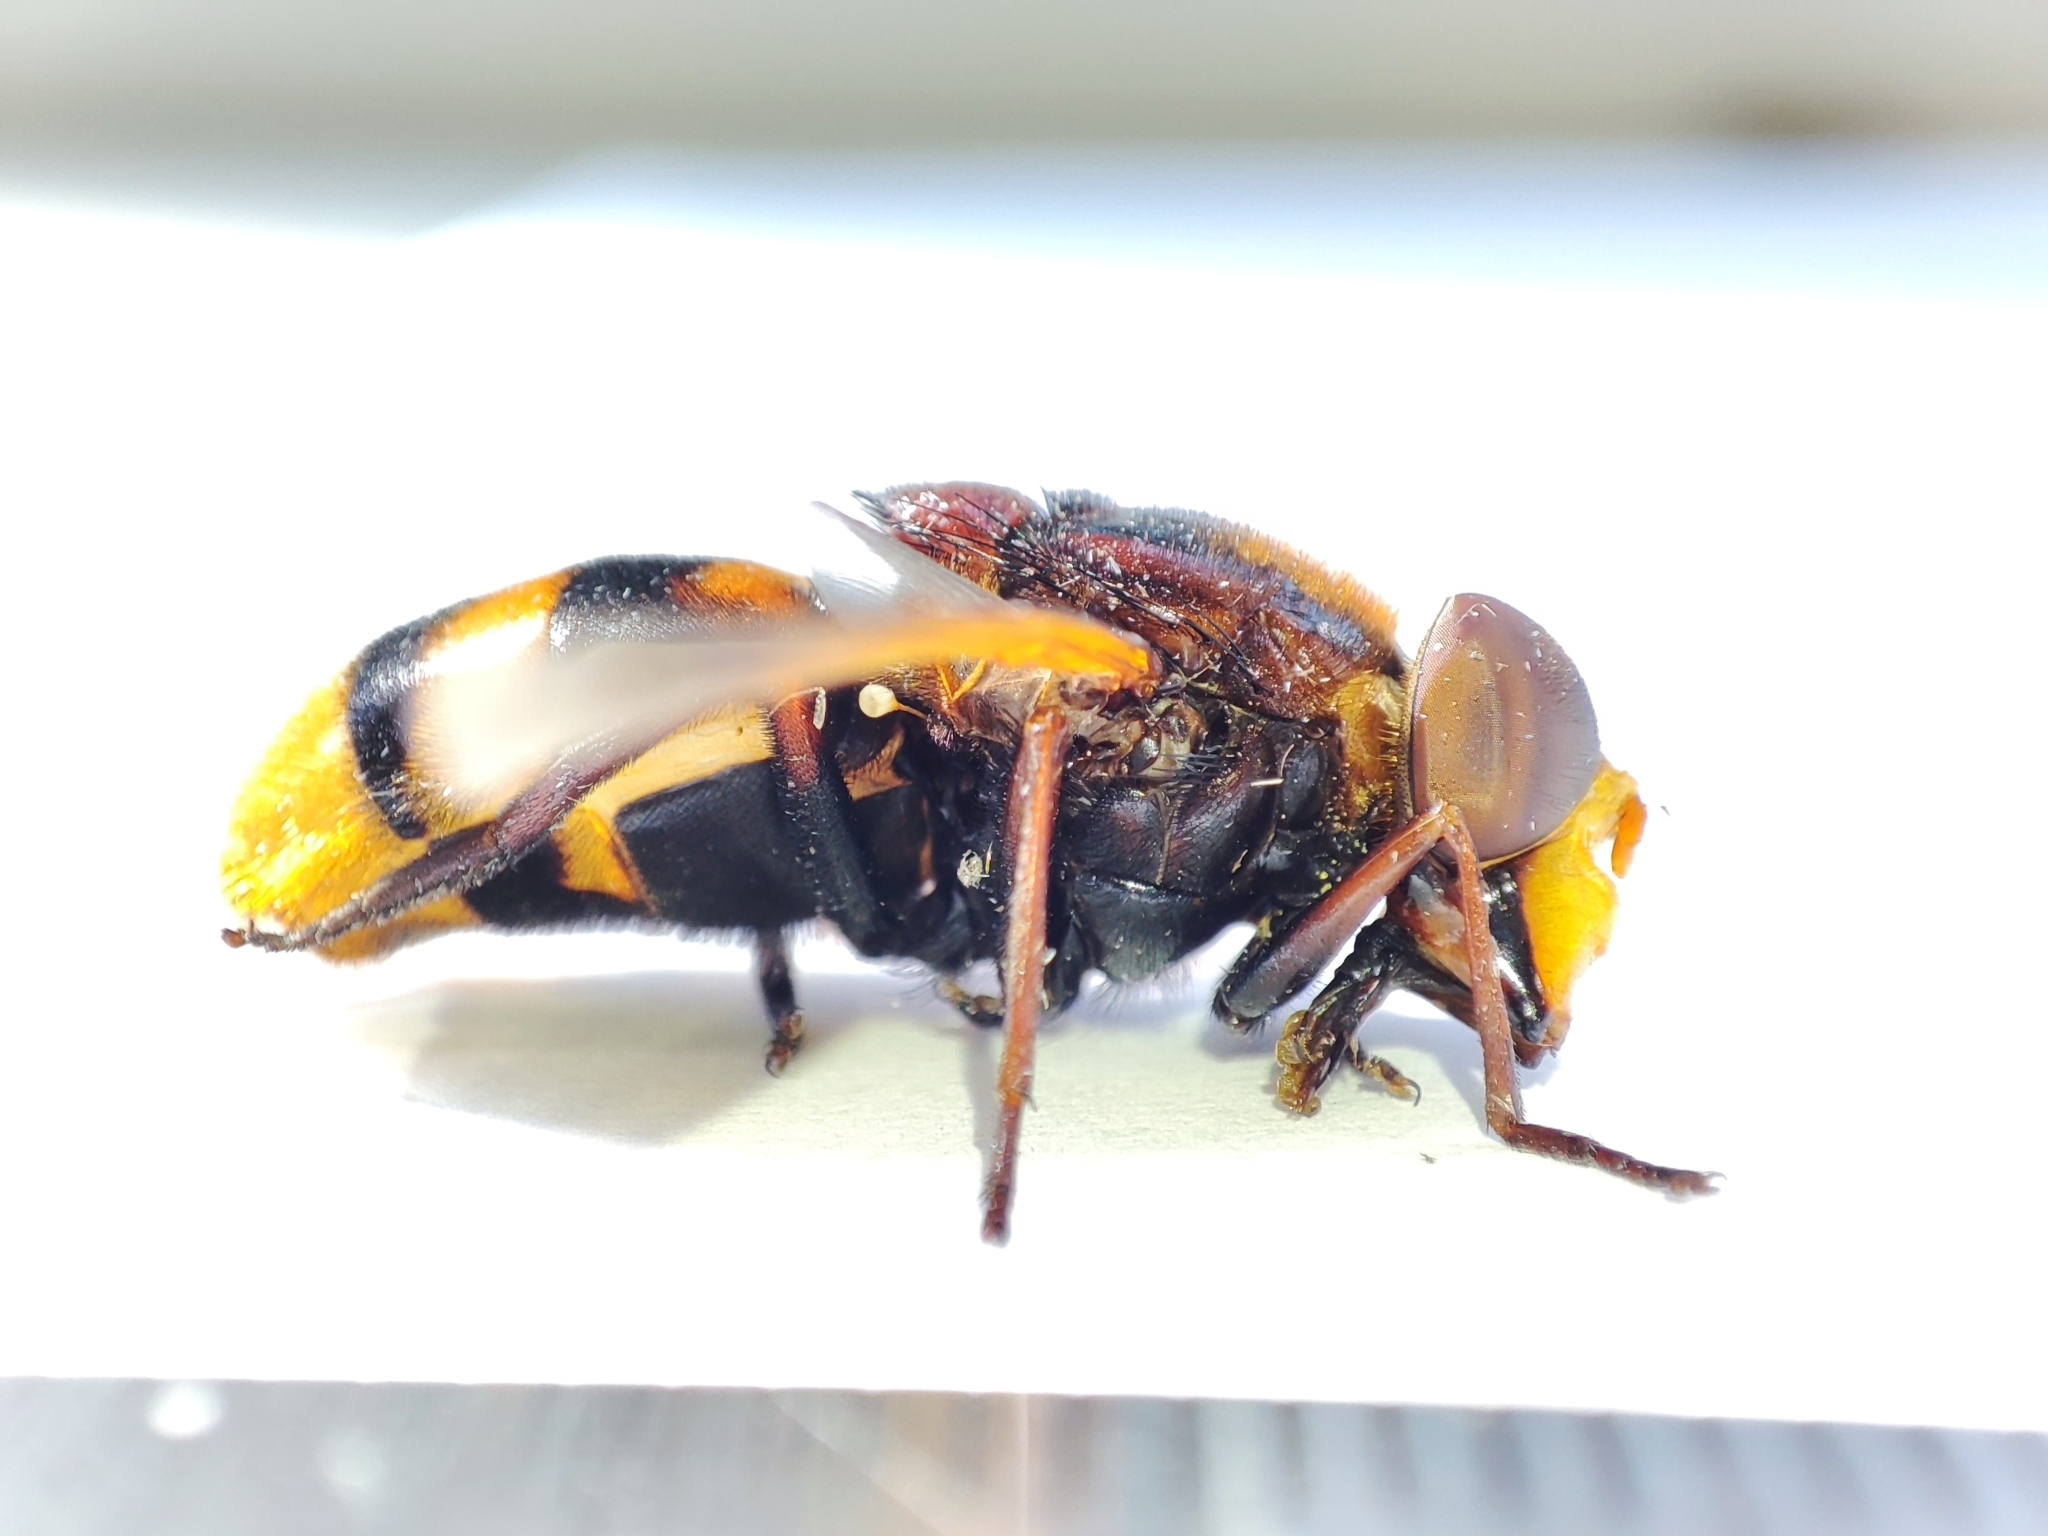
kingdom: Animalia
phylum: Arthropoda
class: Insecta
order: Diptera
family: Syrphidae
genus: Volucella
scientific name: Volucella zonaria
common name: Hornet hoverfly
